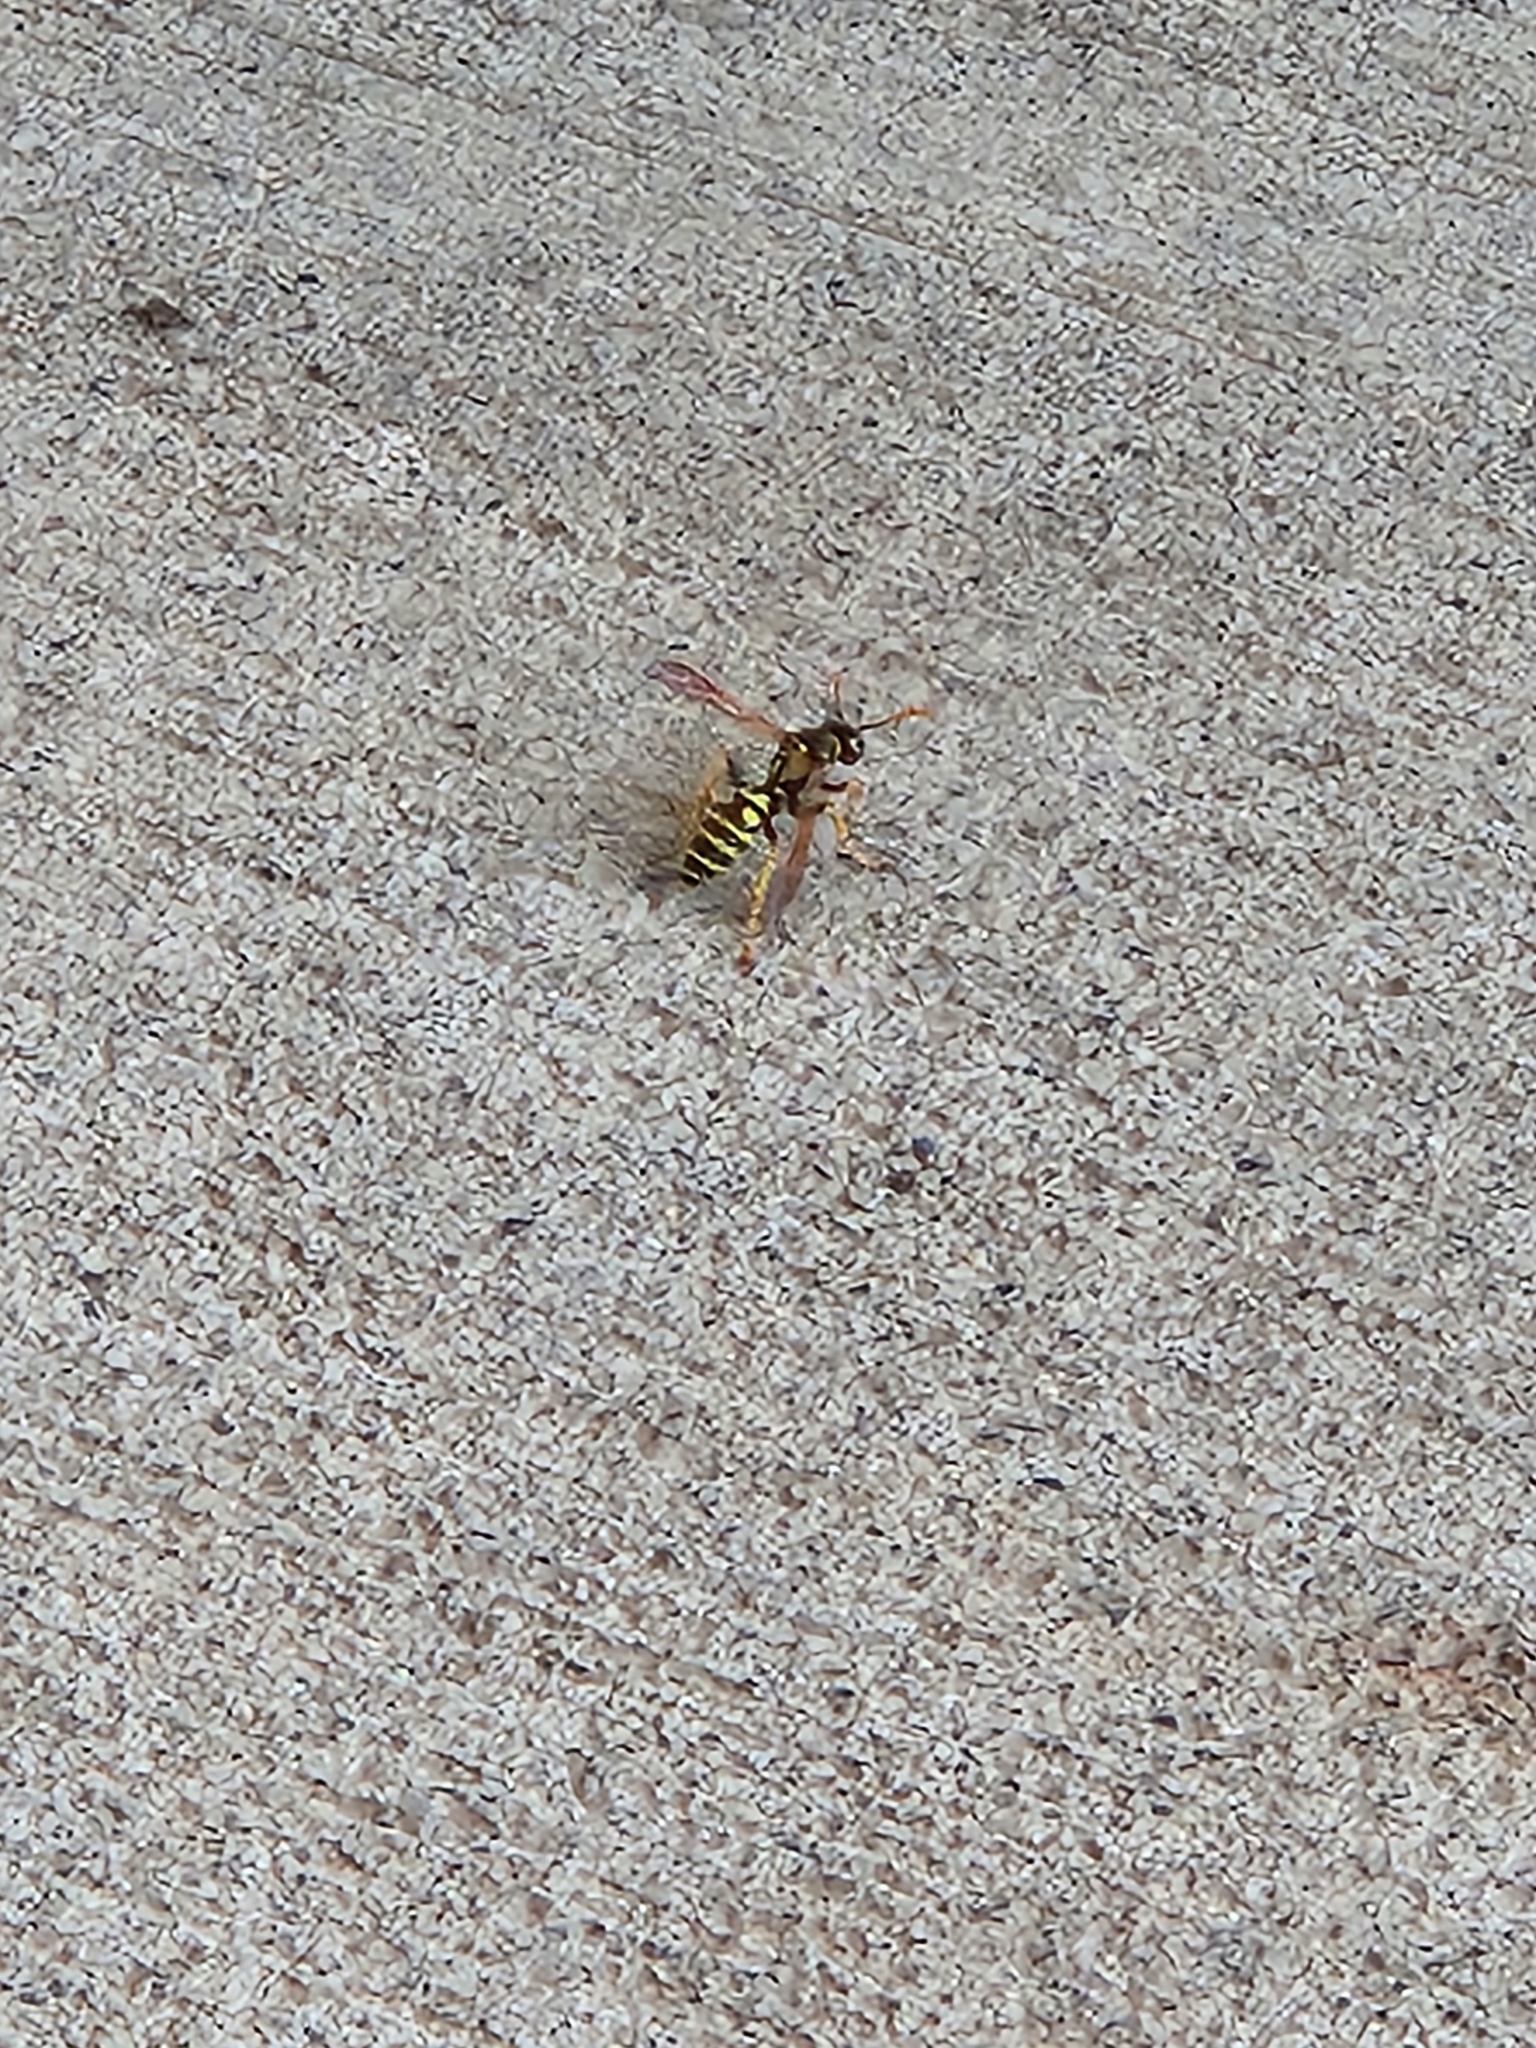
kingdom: Animalia
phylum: Arthropoda
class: Insecta
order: Hymenoptera
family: Eumenidae
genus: Polistes
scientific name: Polistes dominula
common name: Paper wasp
